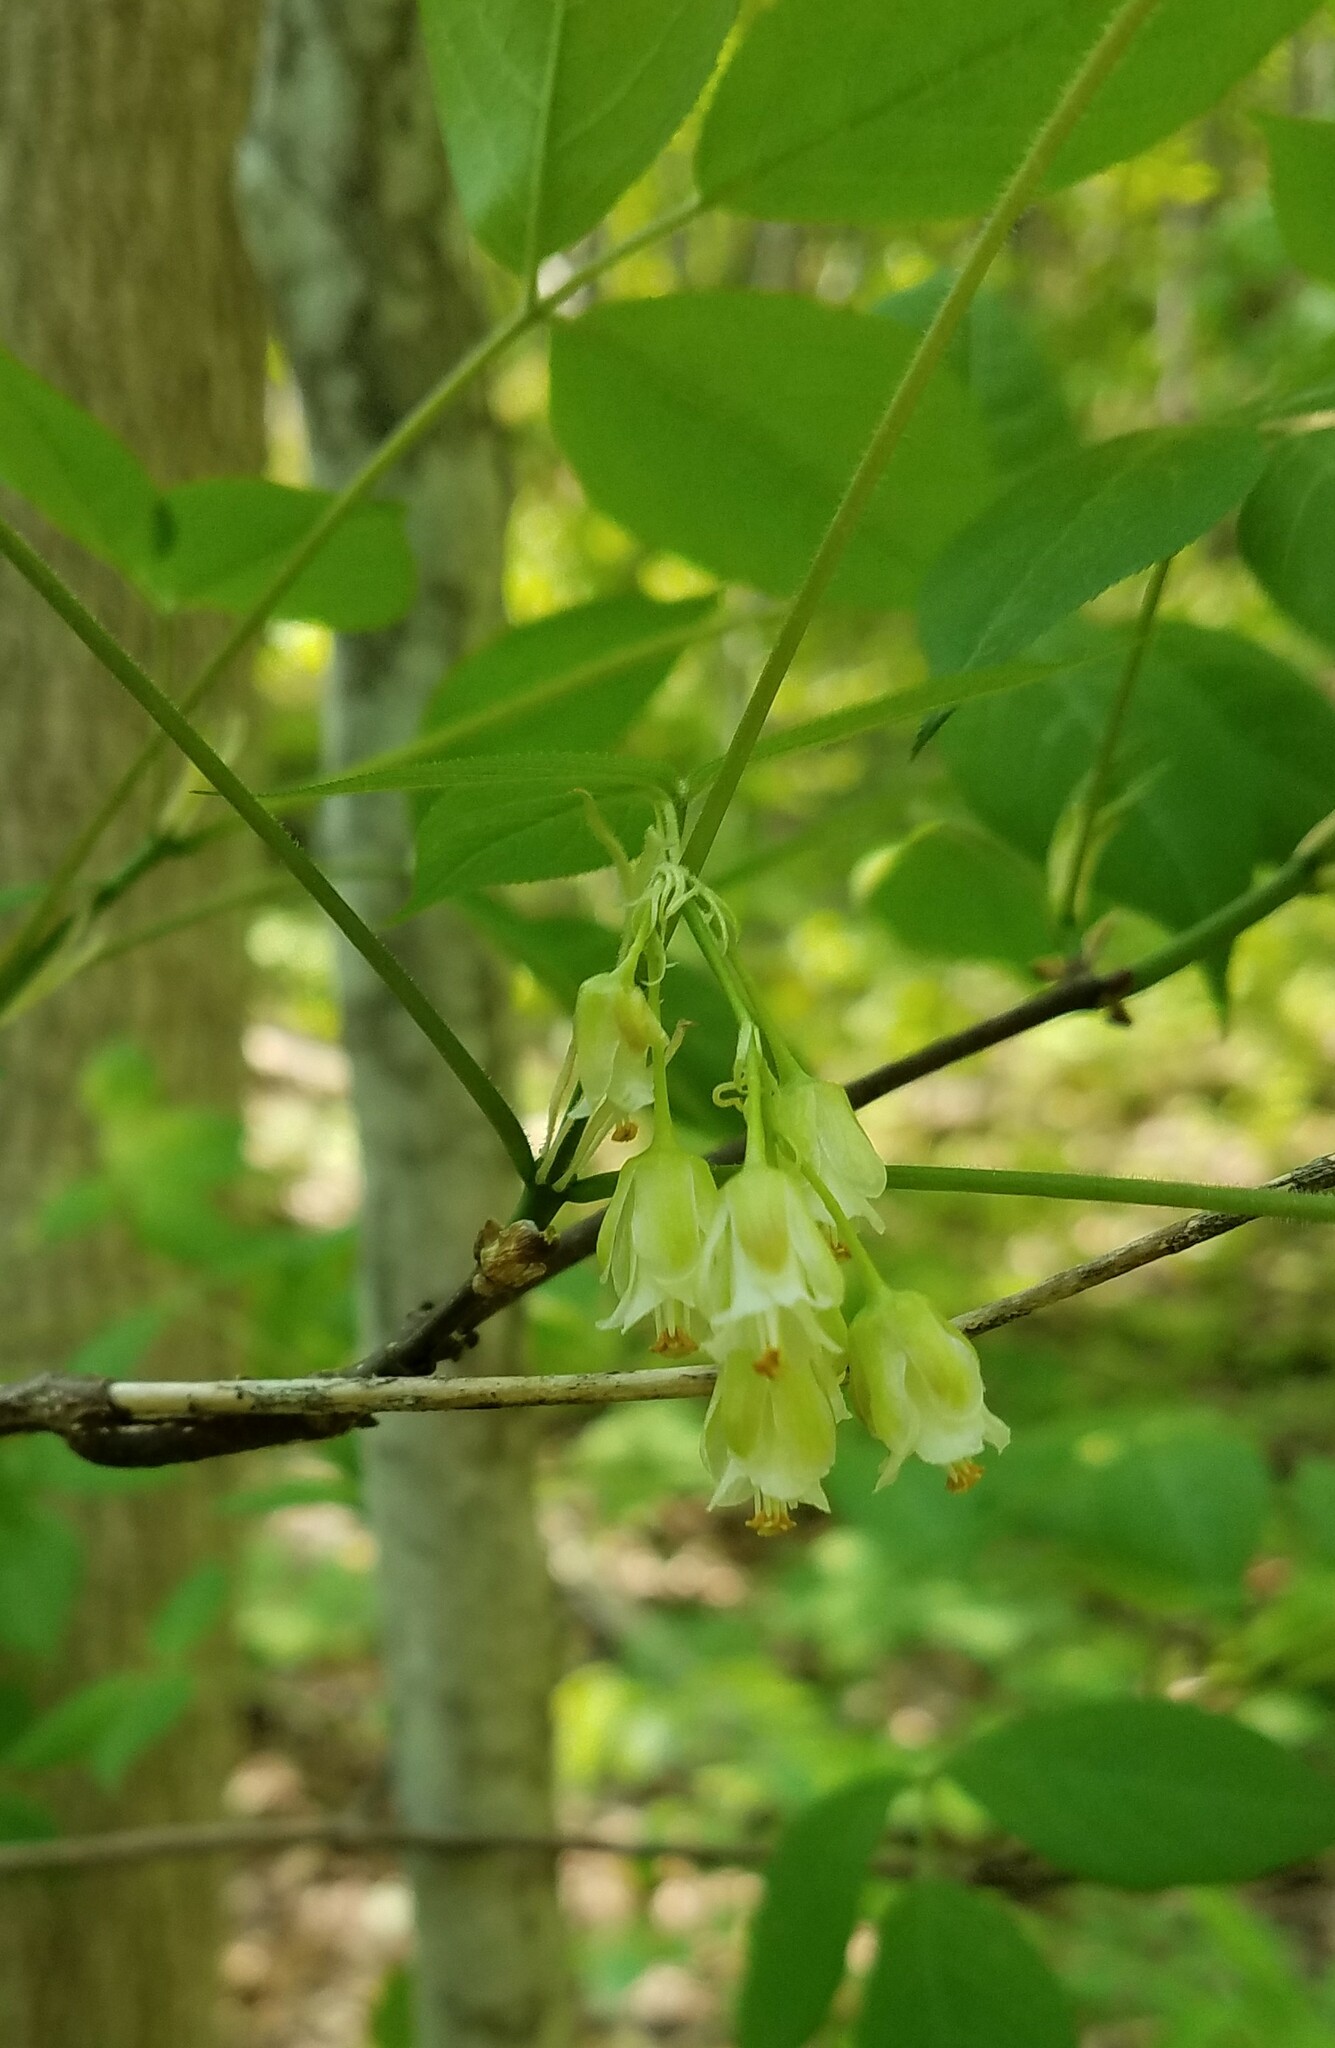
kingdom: Plantae
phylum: Tracheophyta
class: Magnoliopsida
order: Crossosomatales
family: Staphyleaceae
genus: Staphylea
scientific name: Staphylea trifolia
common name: American bladdernut
